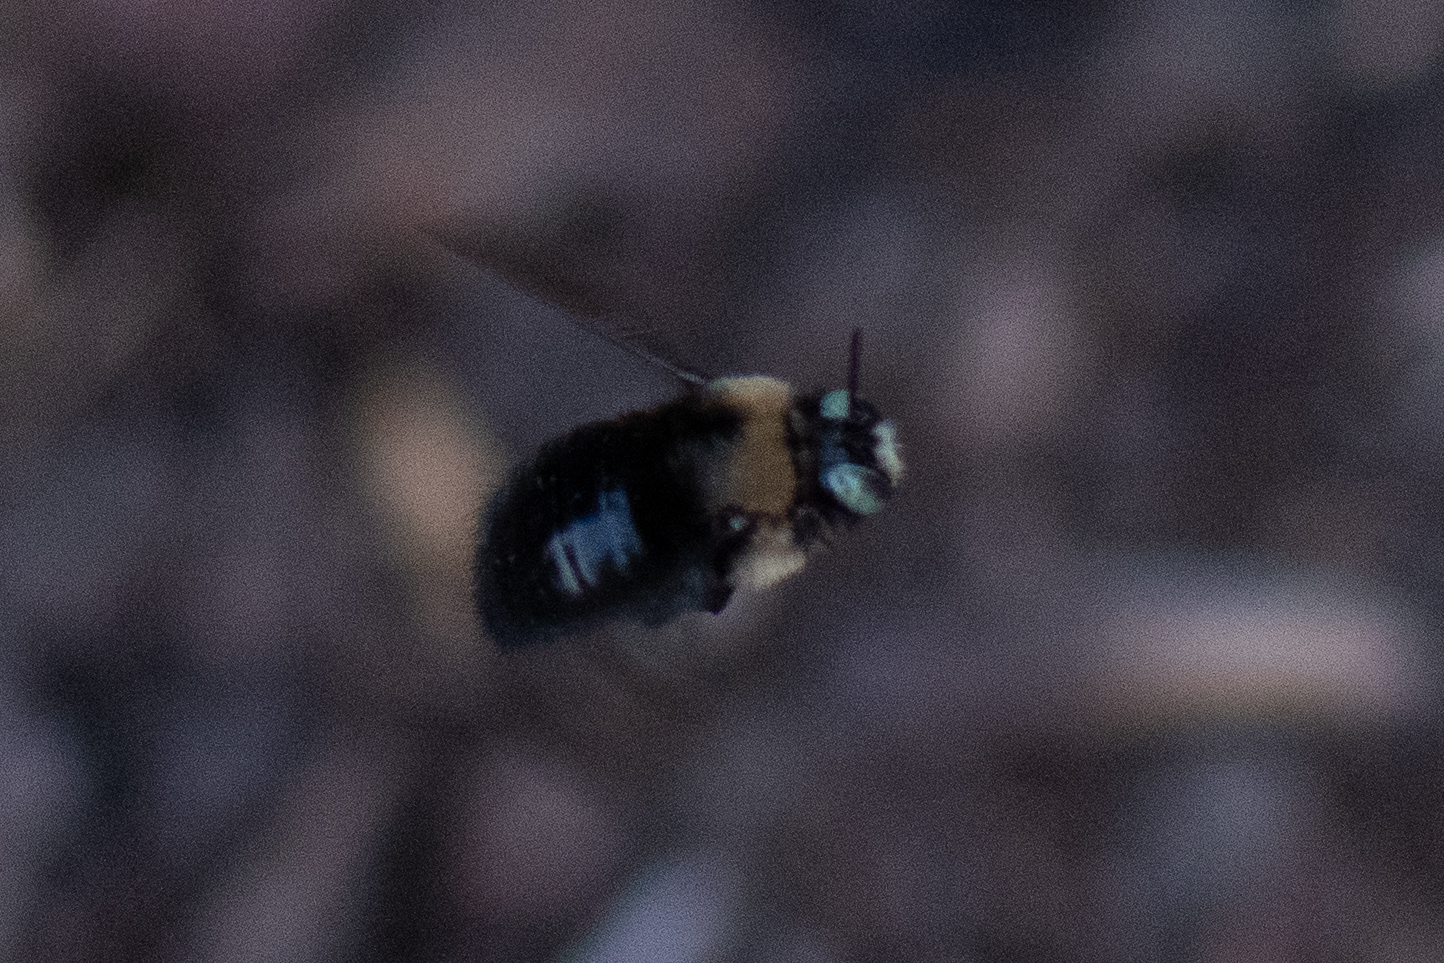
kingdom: Animalia
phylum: Arthropoda
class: Insecta
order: Hymenoptera
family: Apidae
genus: Xylocopa
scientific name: Xylocopa tabaniformis
